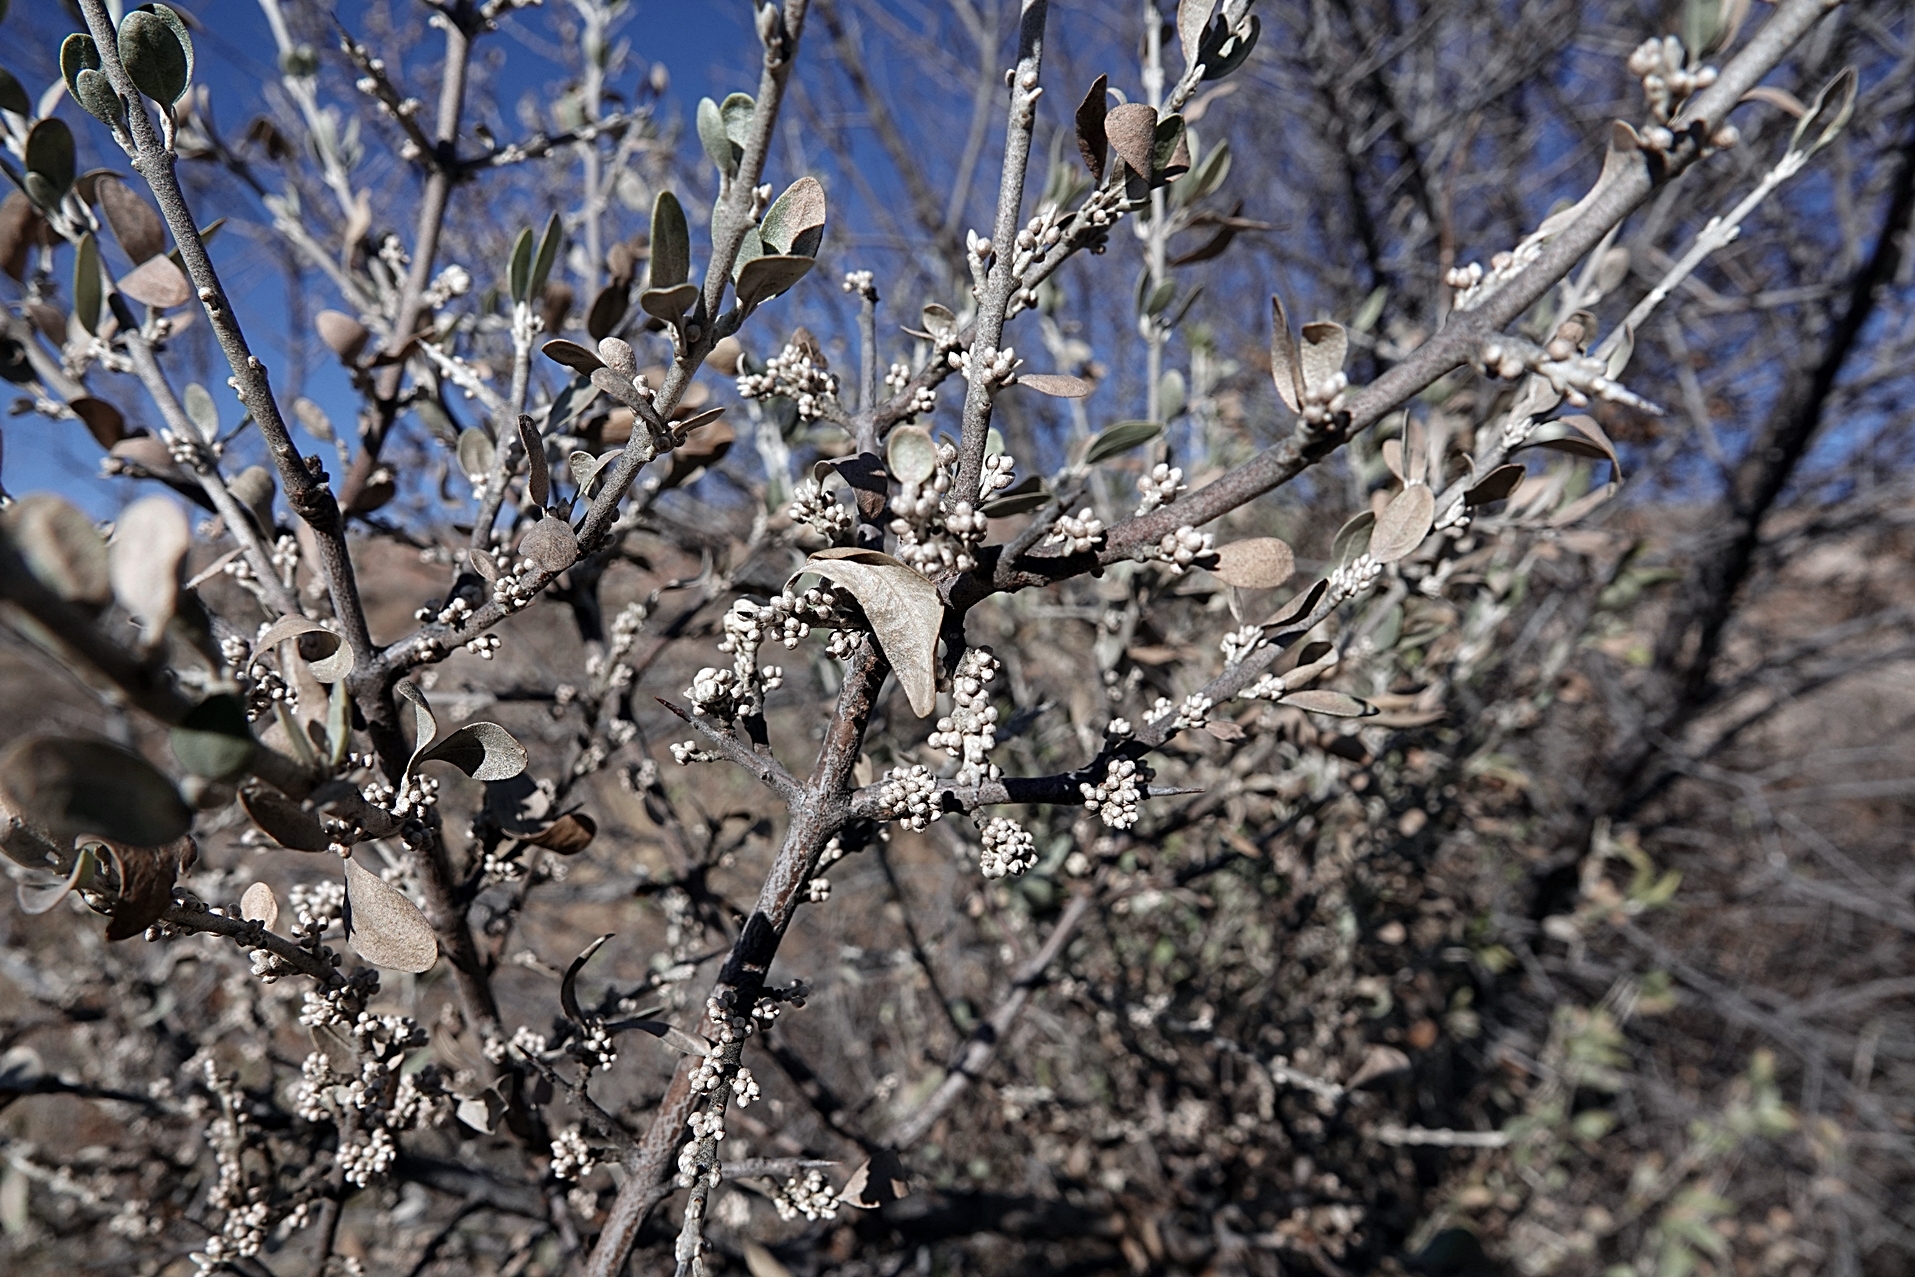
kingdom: Plantae
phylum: Tracheophyta
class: Magnoliopsida
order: Rosales
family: Elaeagnaceae
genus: Shepherdia
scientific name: Shepherdia argentea
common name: Silver buffaloberry
